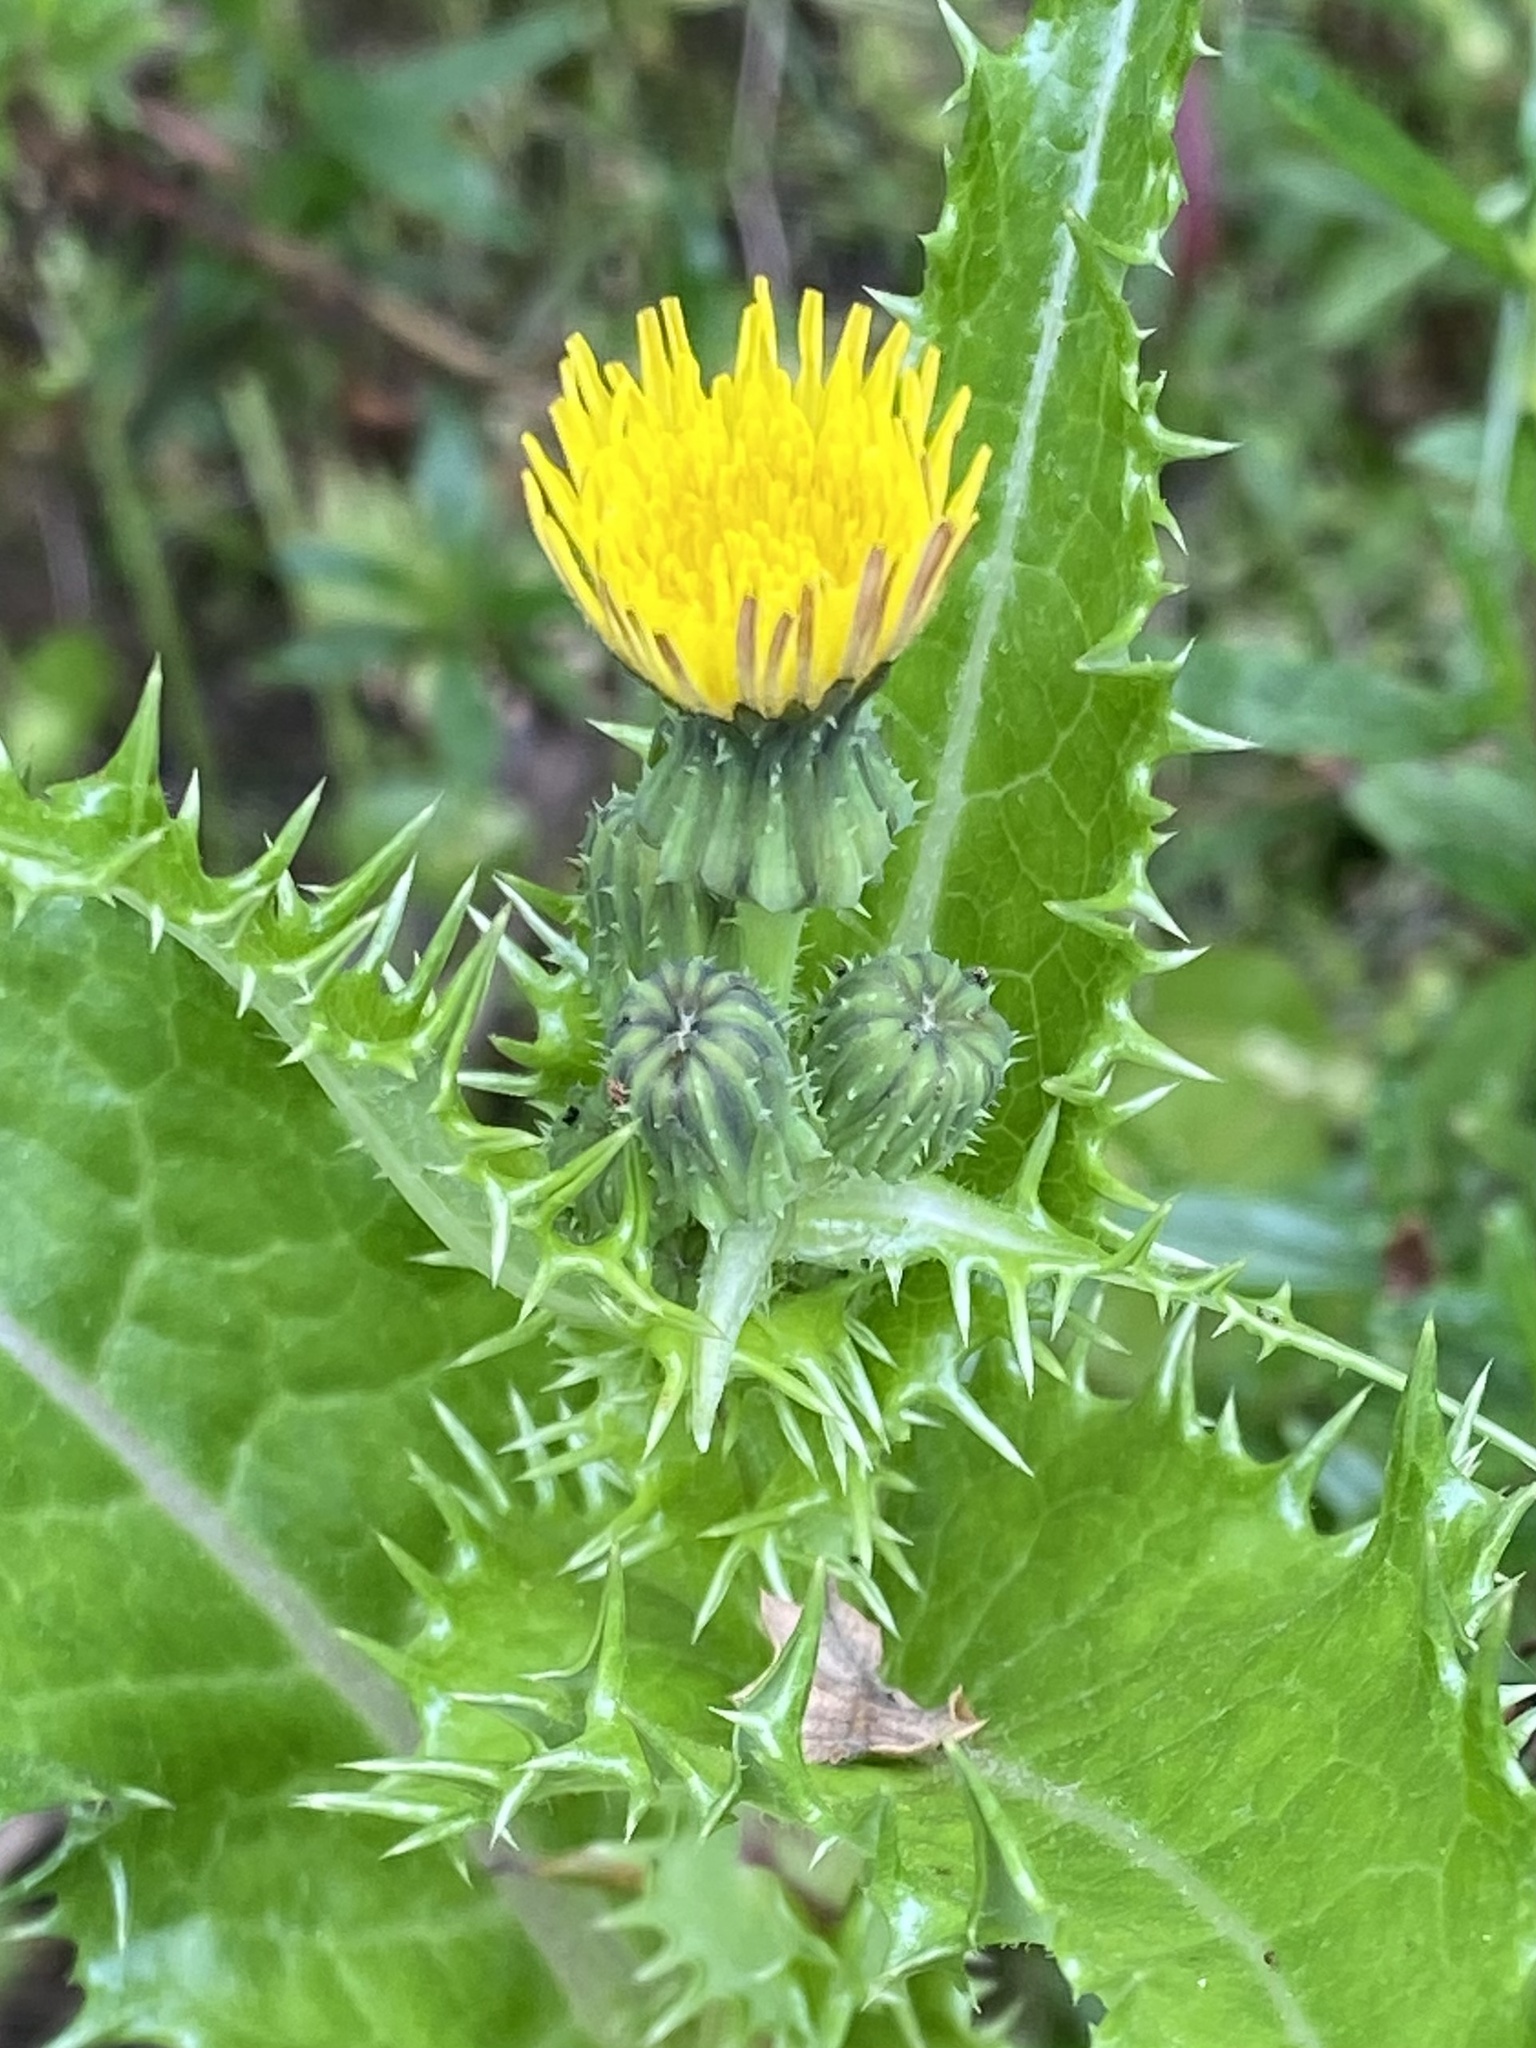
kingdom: Plantae
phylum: Tracheophyta
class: Magnoliopsida
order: Asterales
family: Asteraceae
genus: Sonchus
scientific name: Sonchus asper
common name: Prickly sow-thistle
